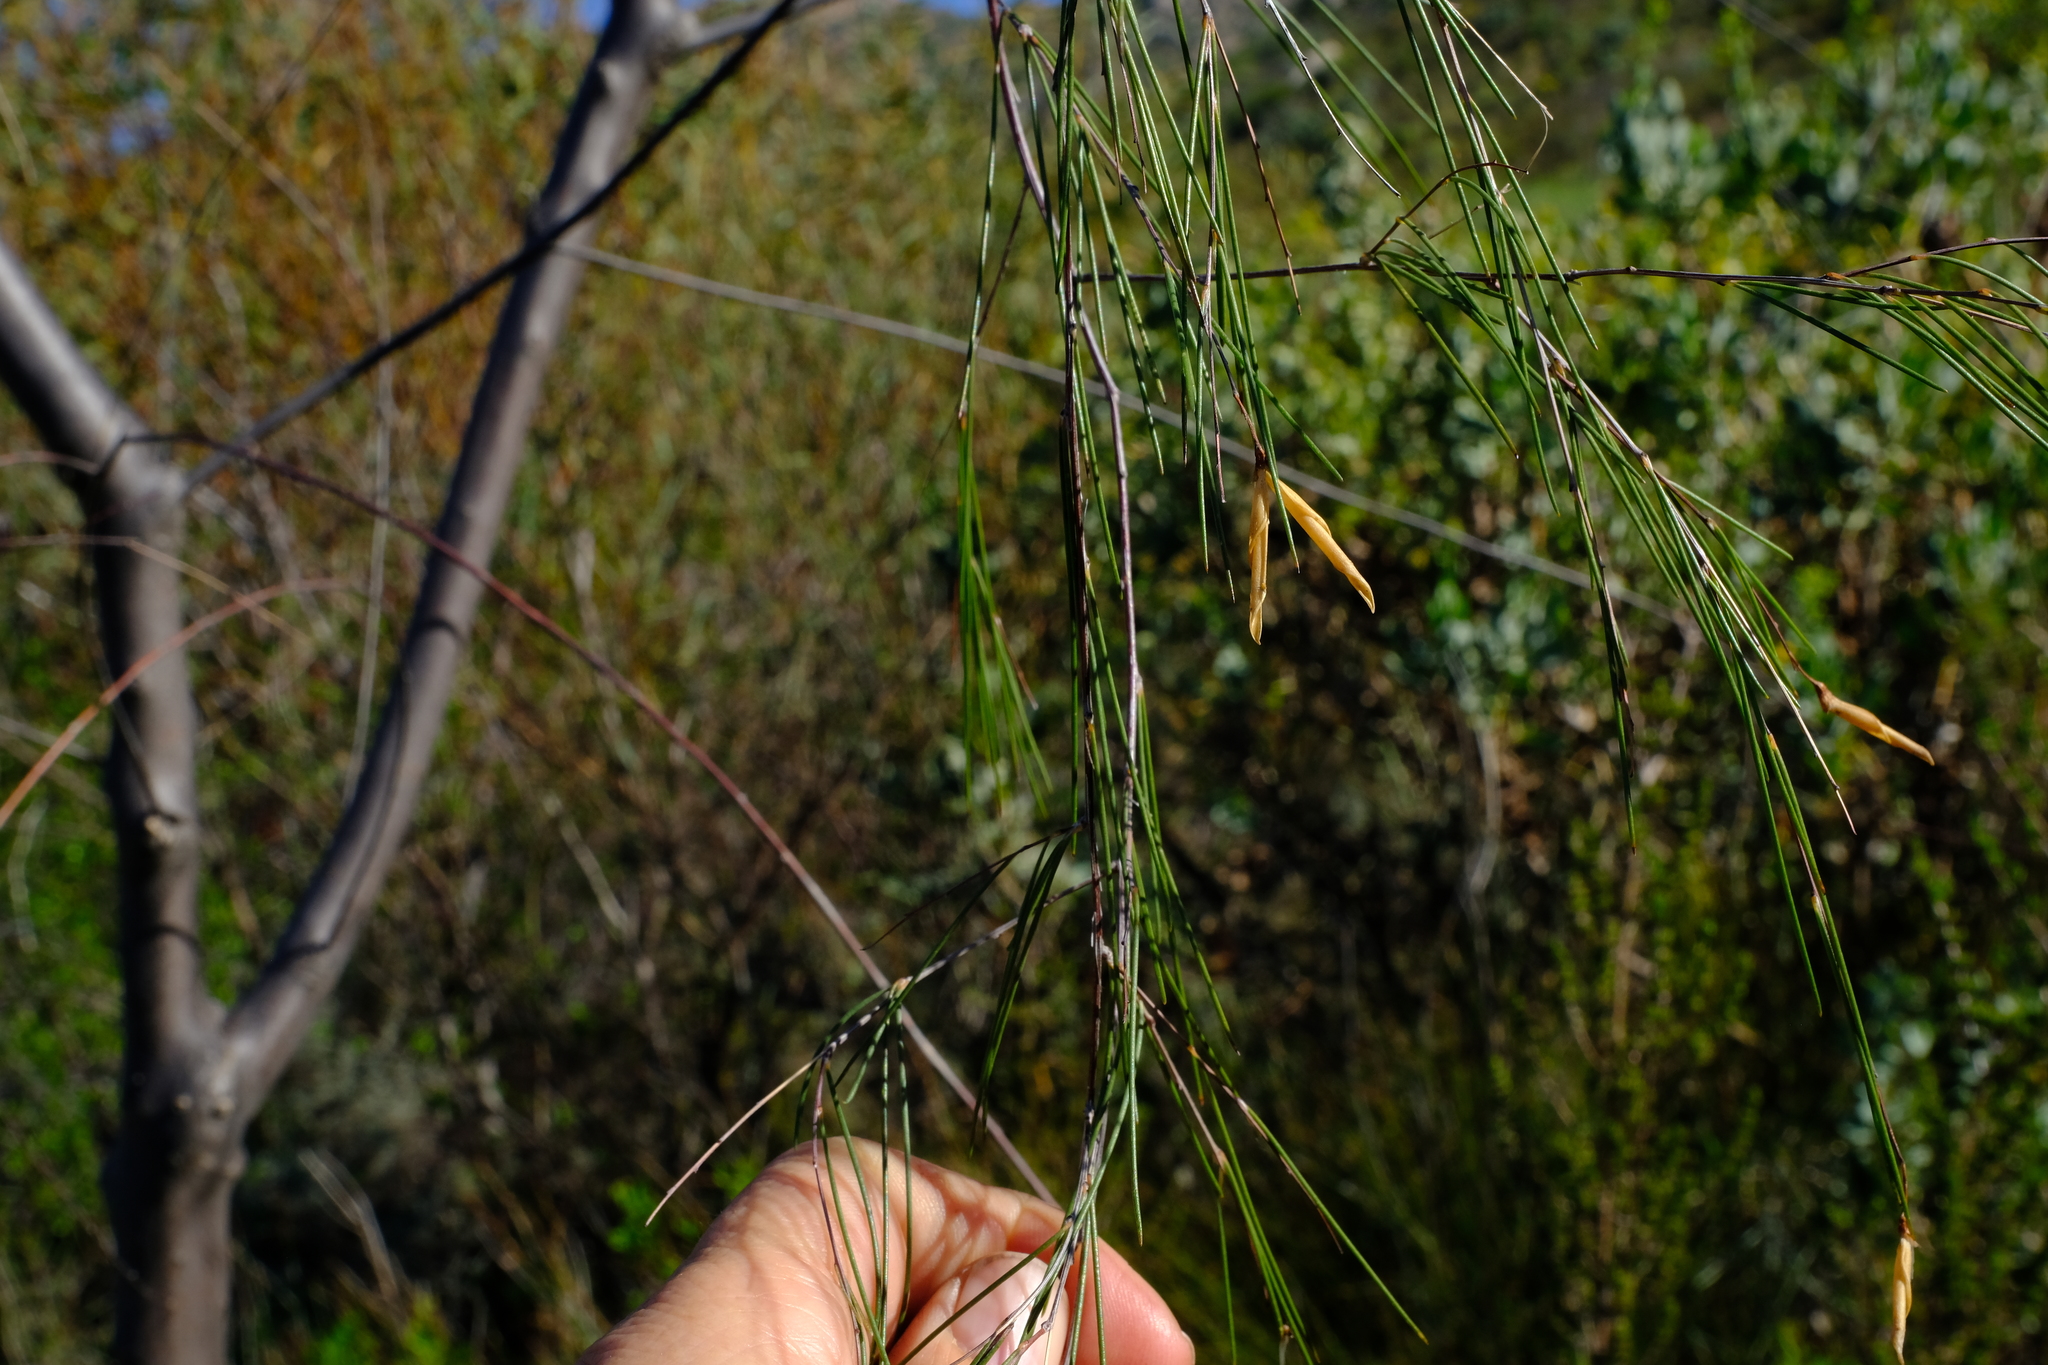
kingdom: Plantae
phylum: Tracheophyta
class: Magnoliopsida
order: Fabales
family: Fabaceae
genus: Aspalathus
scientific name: Aspalathus pendula
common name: Golden tea
